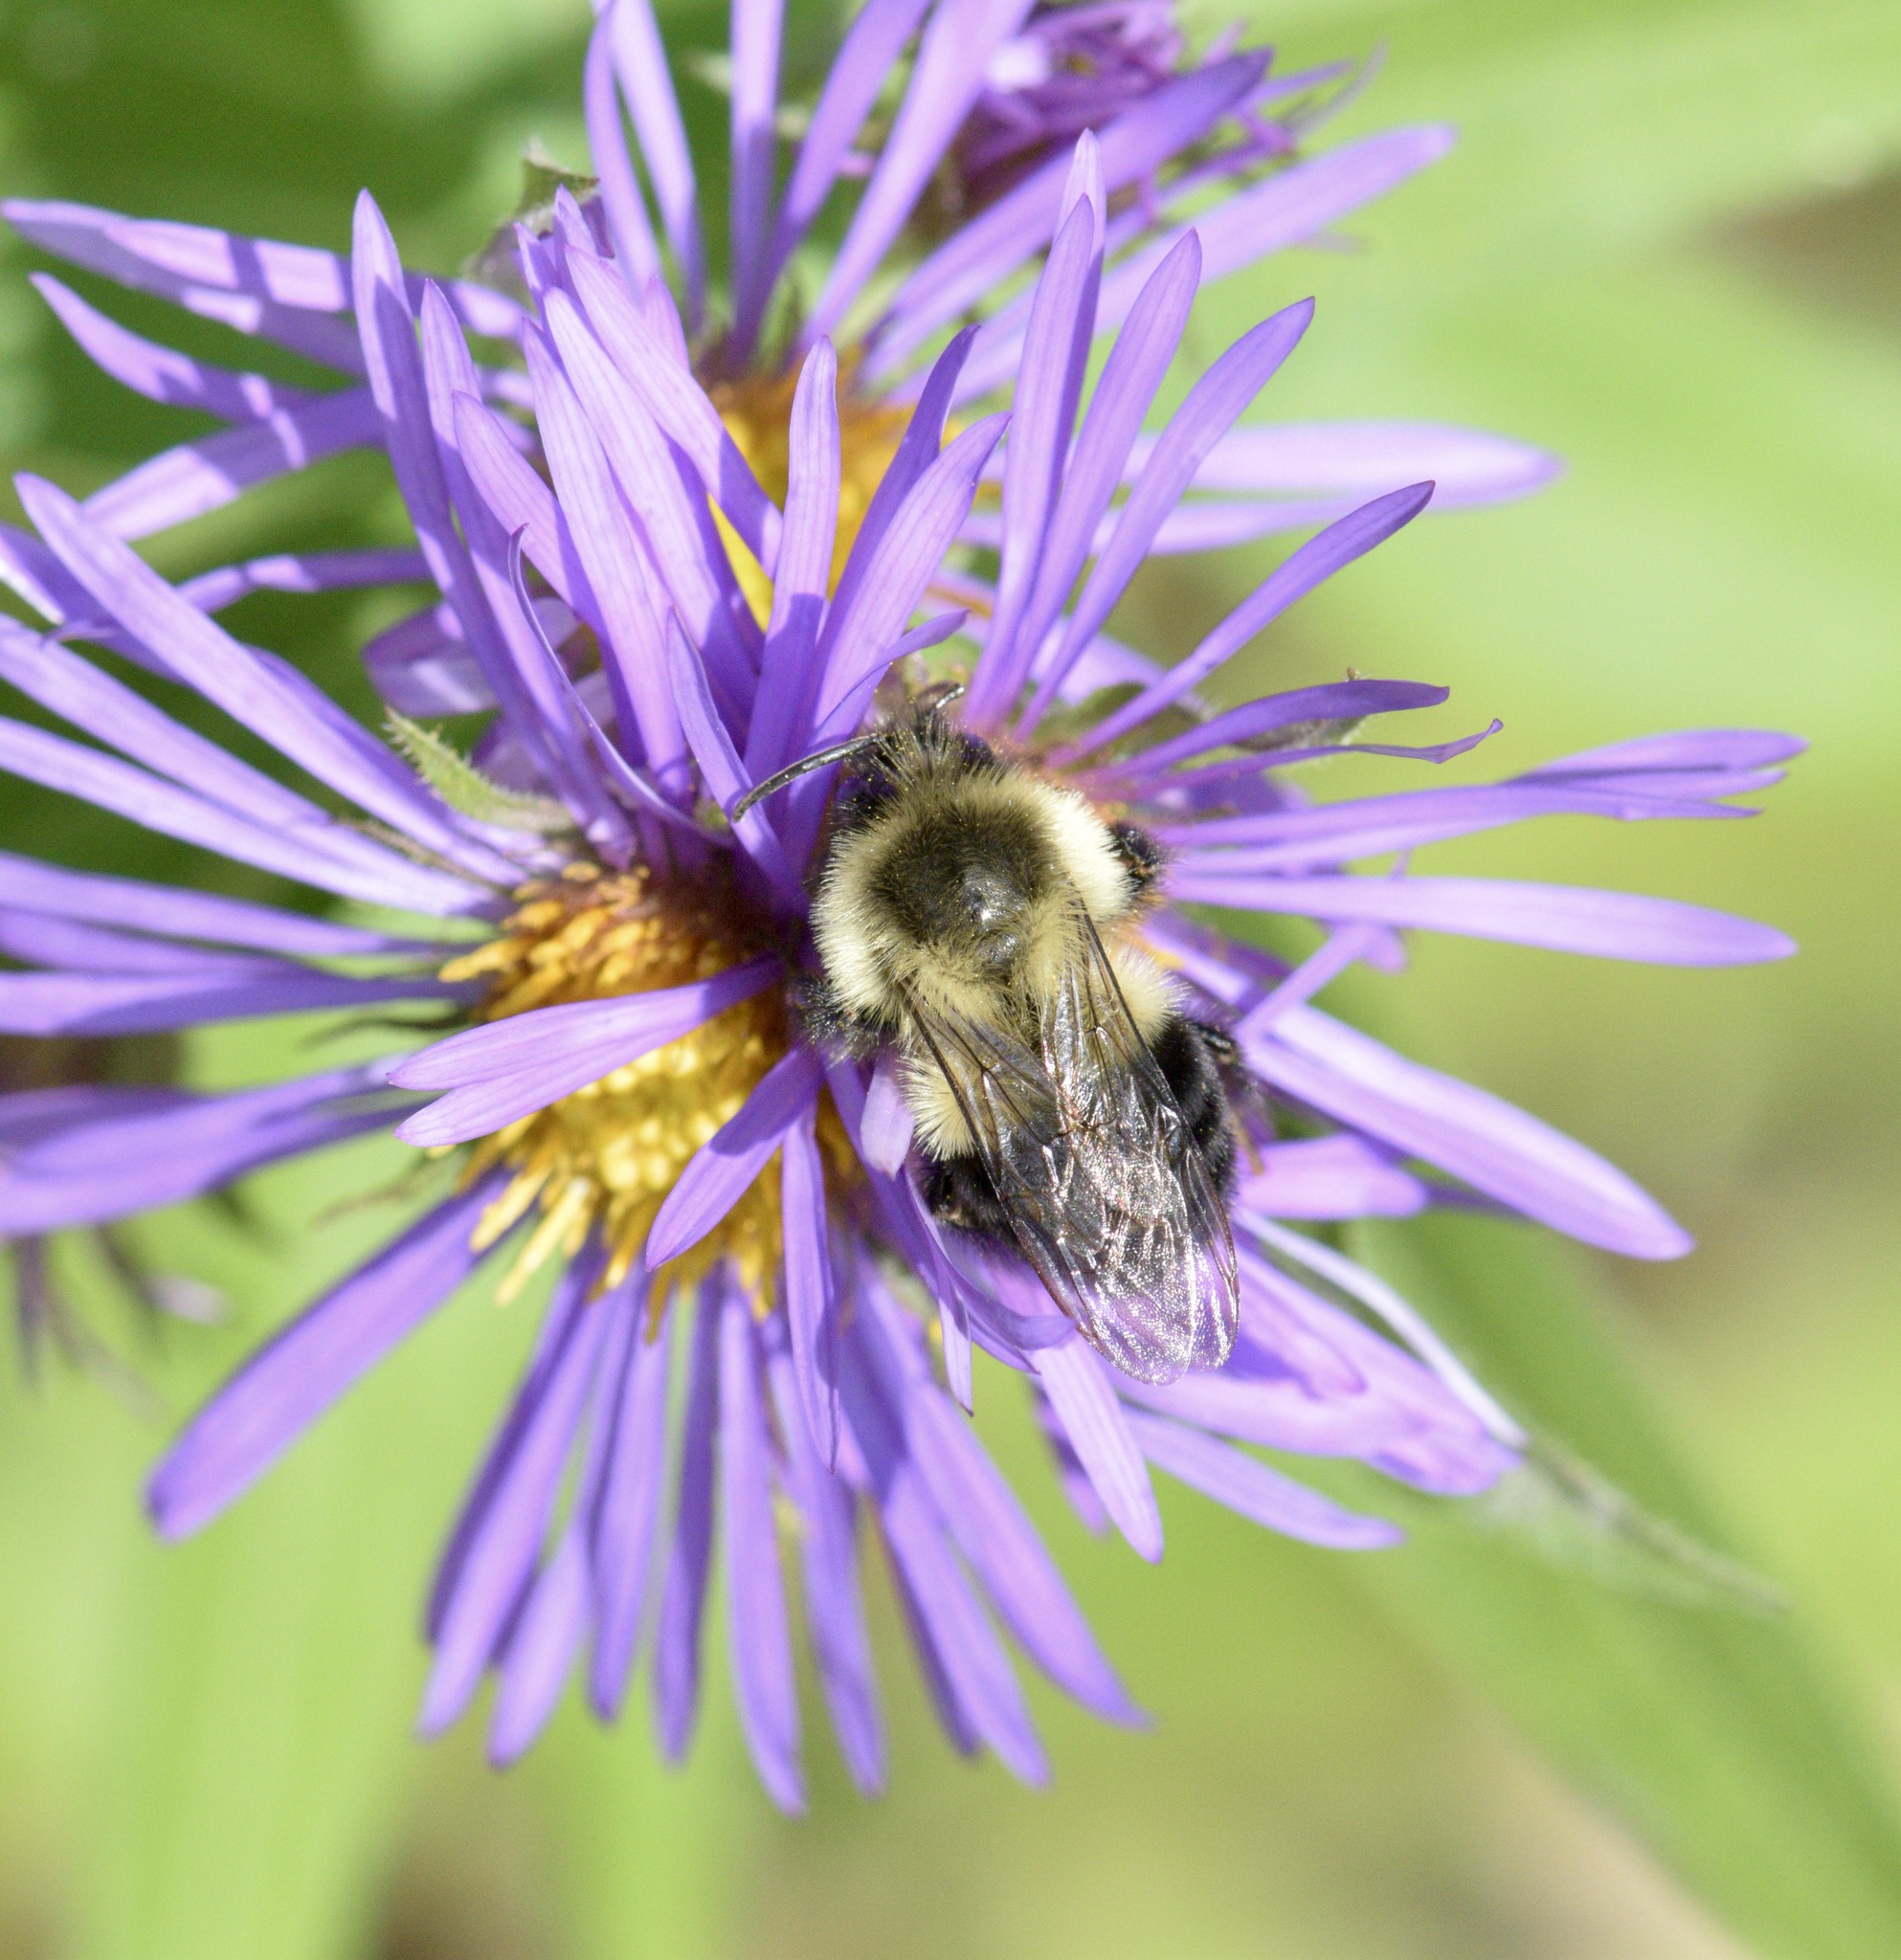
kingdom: Animalia
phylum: Arthropoda
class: Insecta
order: Hymenoptera
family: Apidae
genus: Bombus
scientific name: Bombus impatiens
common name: Common eastern bumble bee
